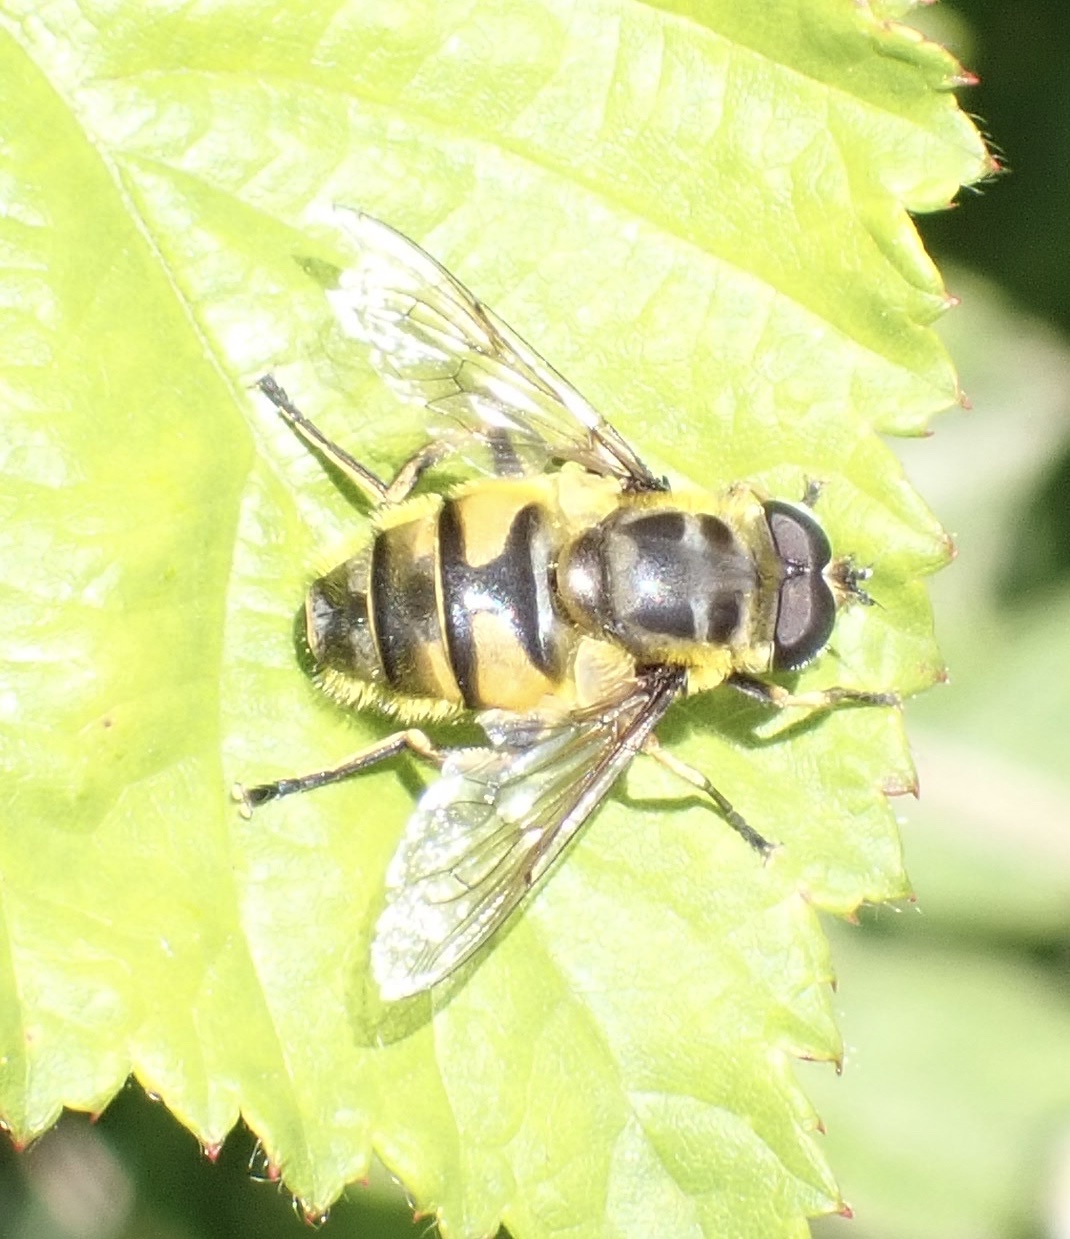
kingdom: Animalia
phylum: Arthropoda
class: Insecta
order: Diptera
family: Syrphidae
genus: Myathropa
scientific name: Myathropa florea
